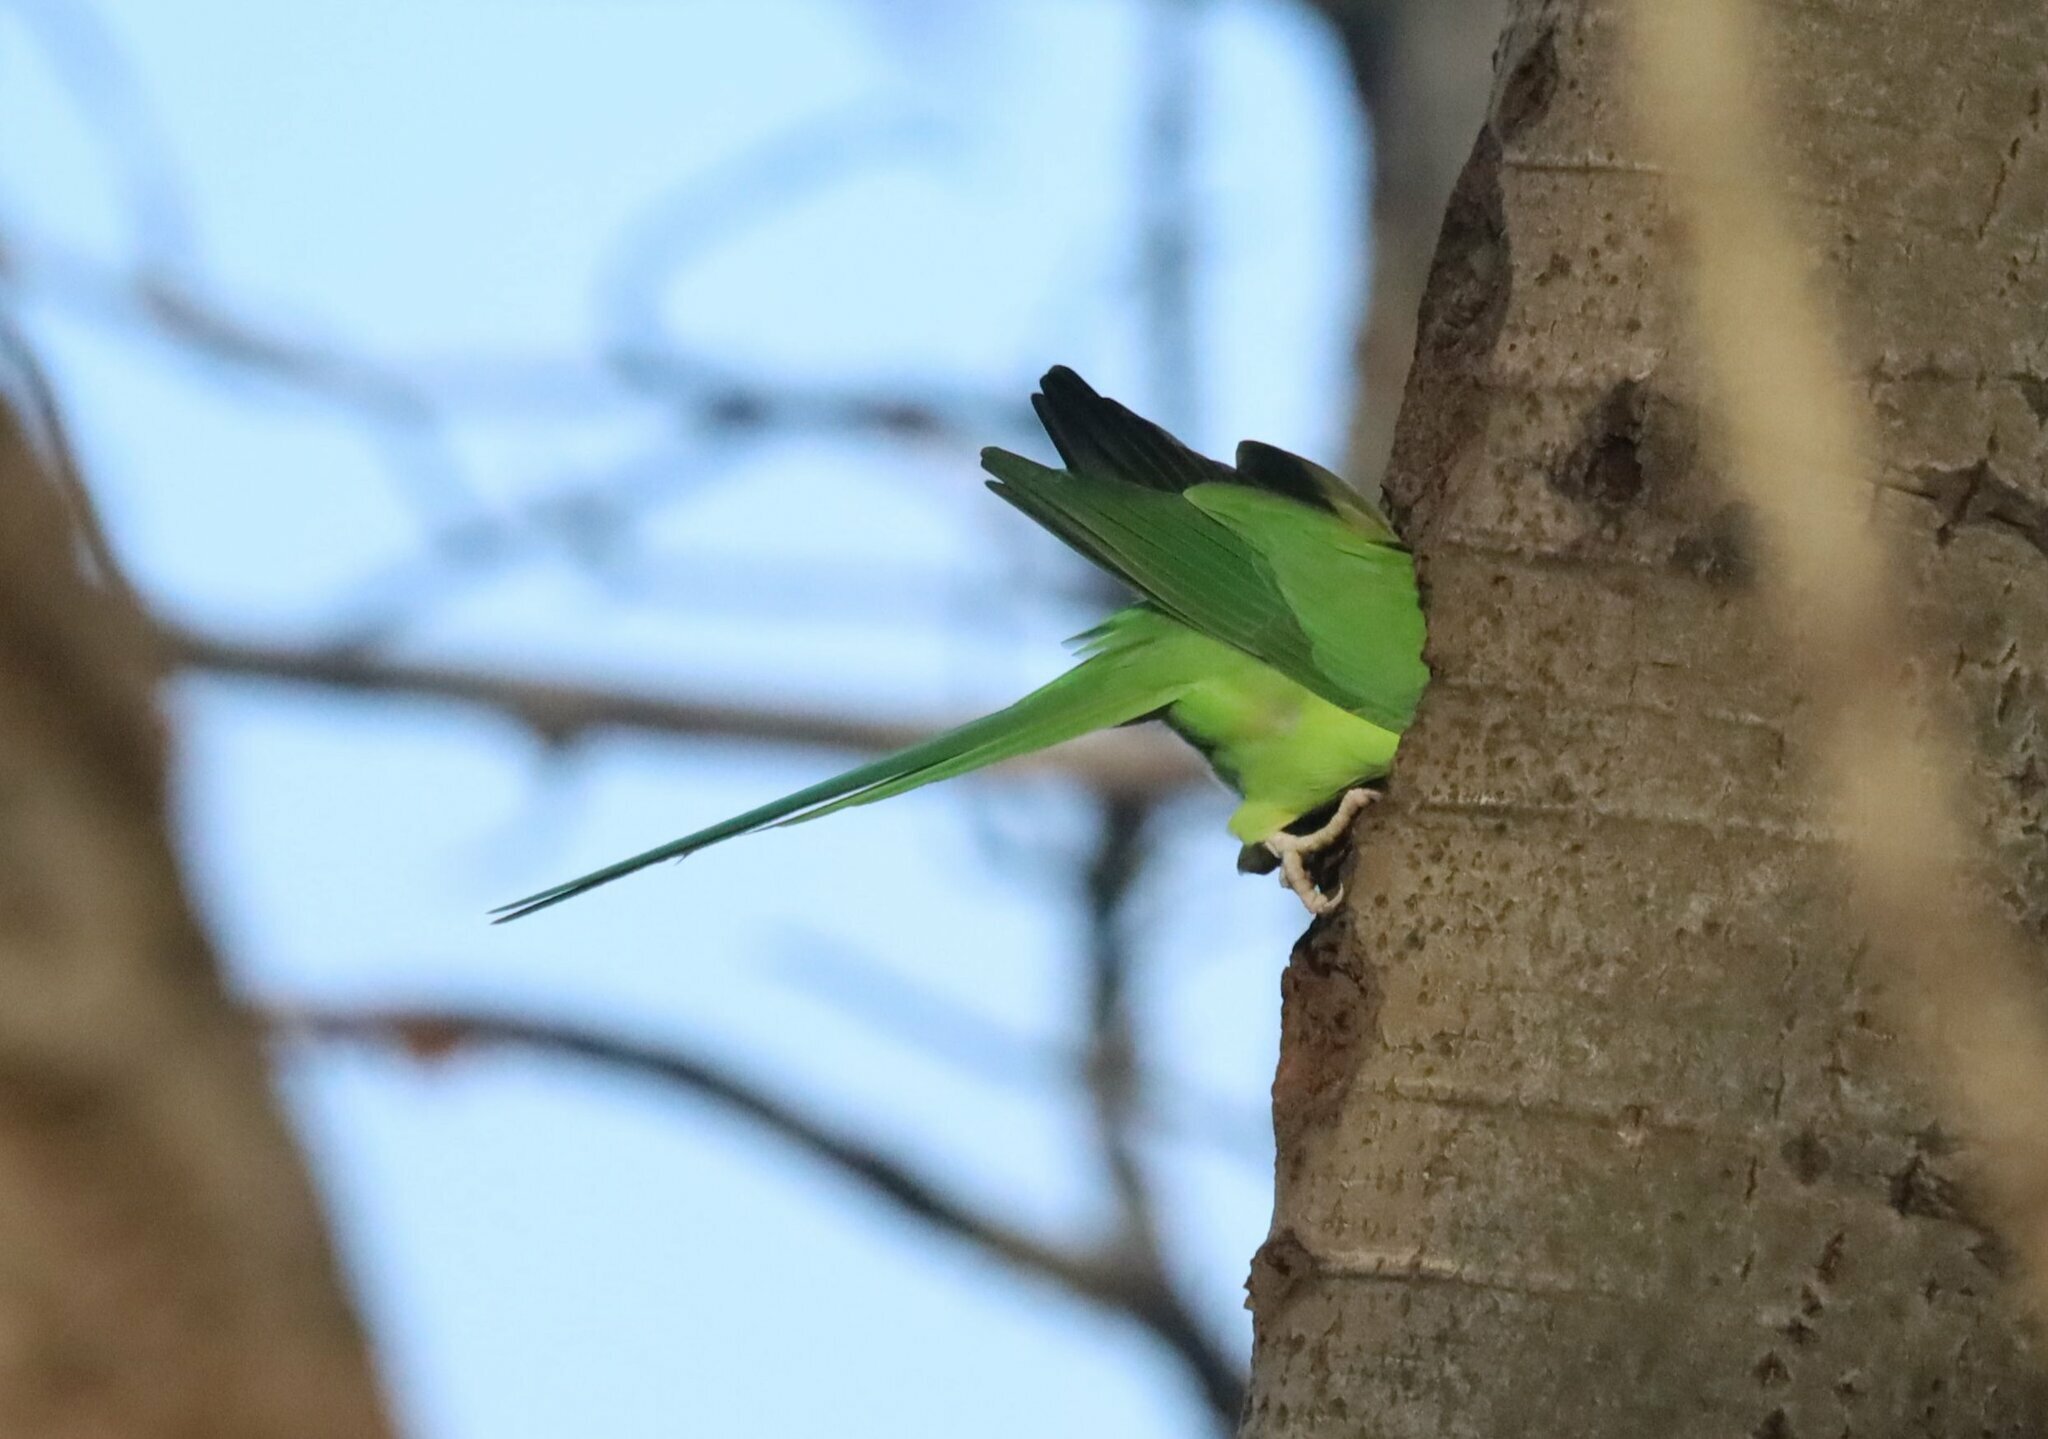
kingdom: Animalia
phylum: Chordata
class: Aves
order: Psittaciformes
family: Psittacidae
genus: Psittacula
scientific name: Psittacula krameri
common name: Rose-ringed parakeet
